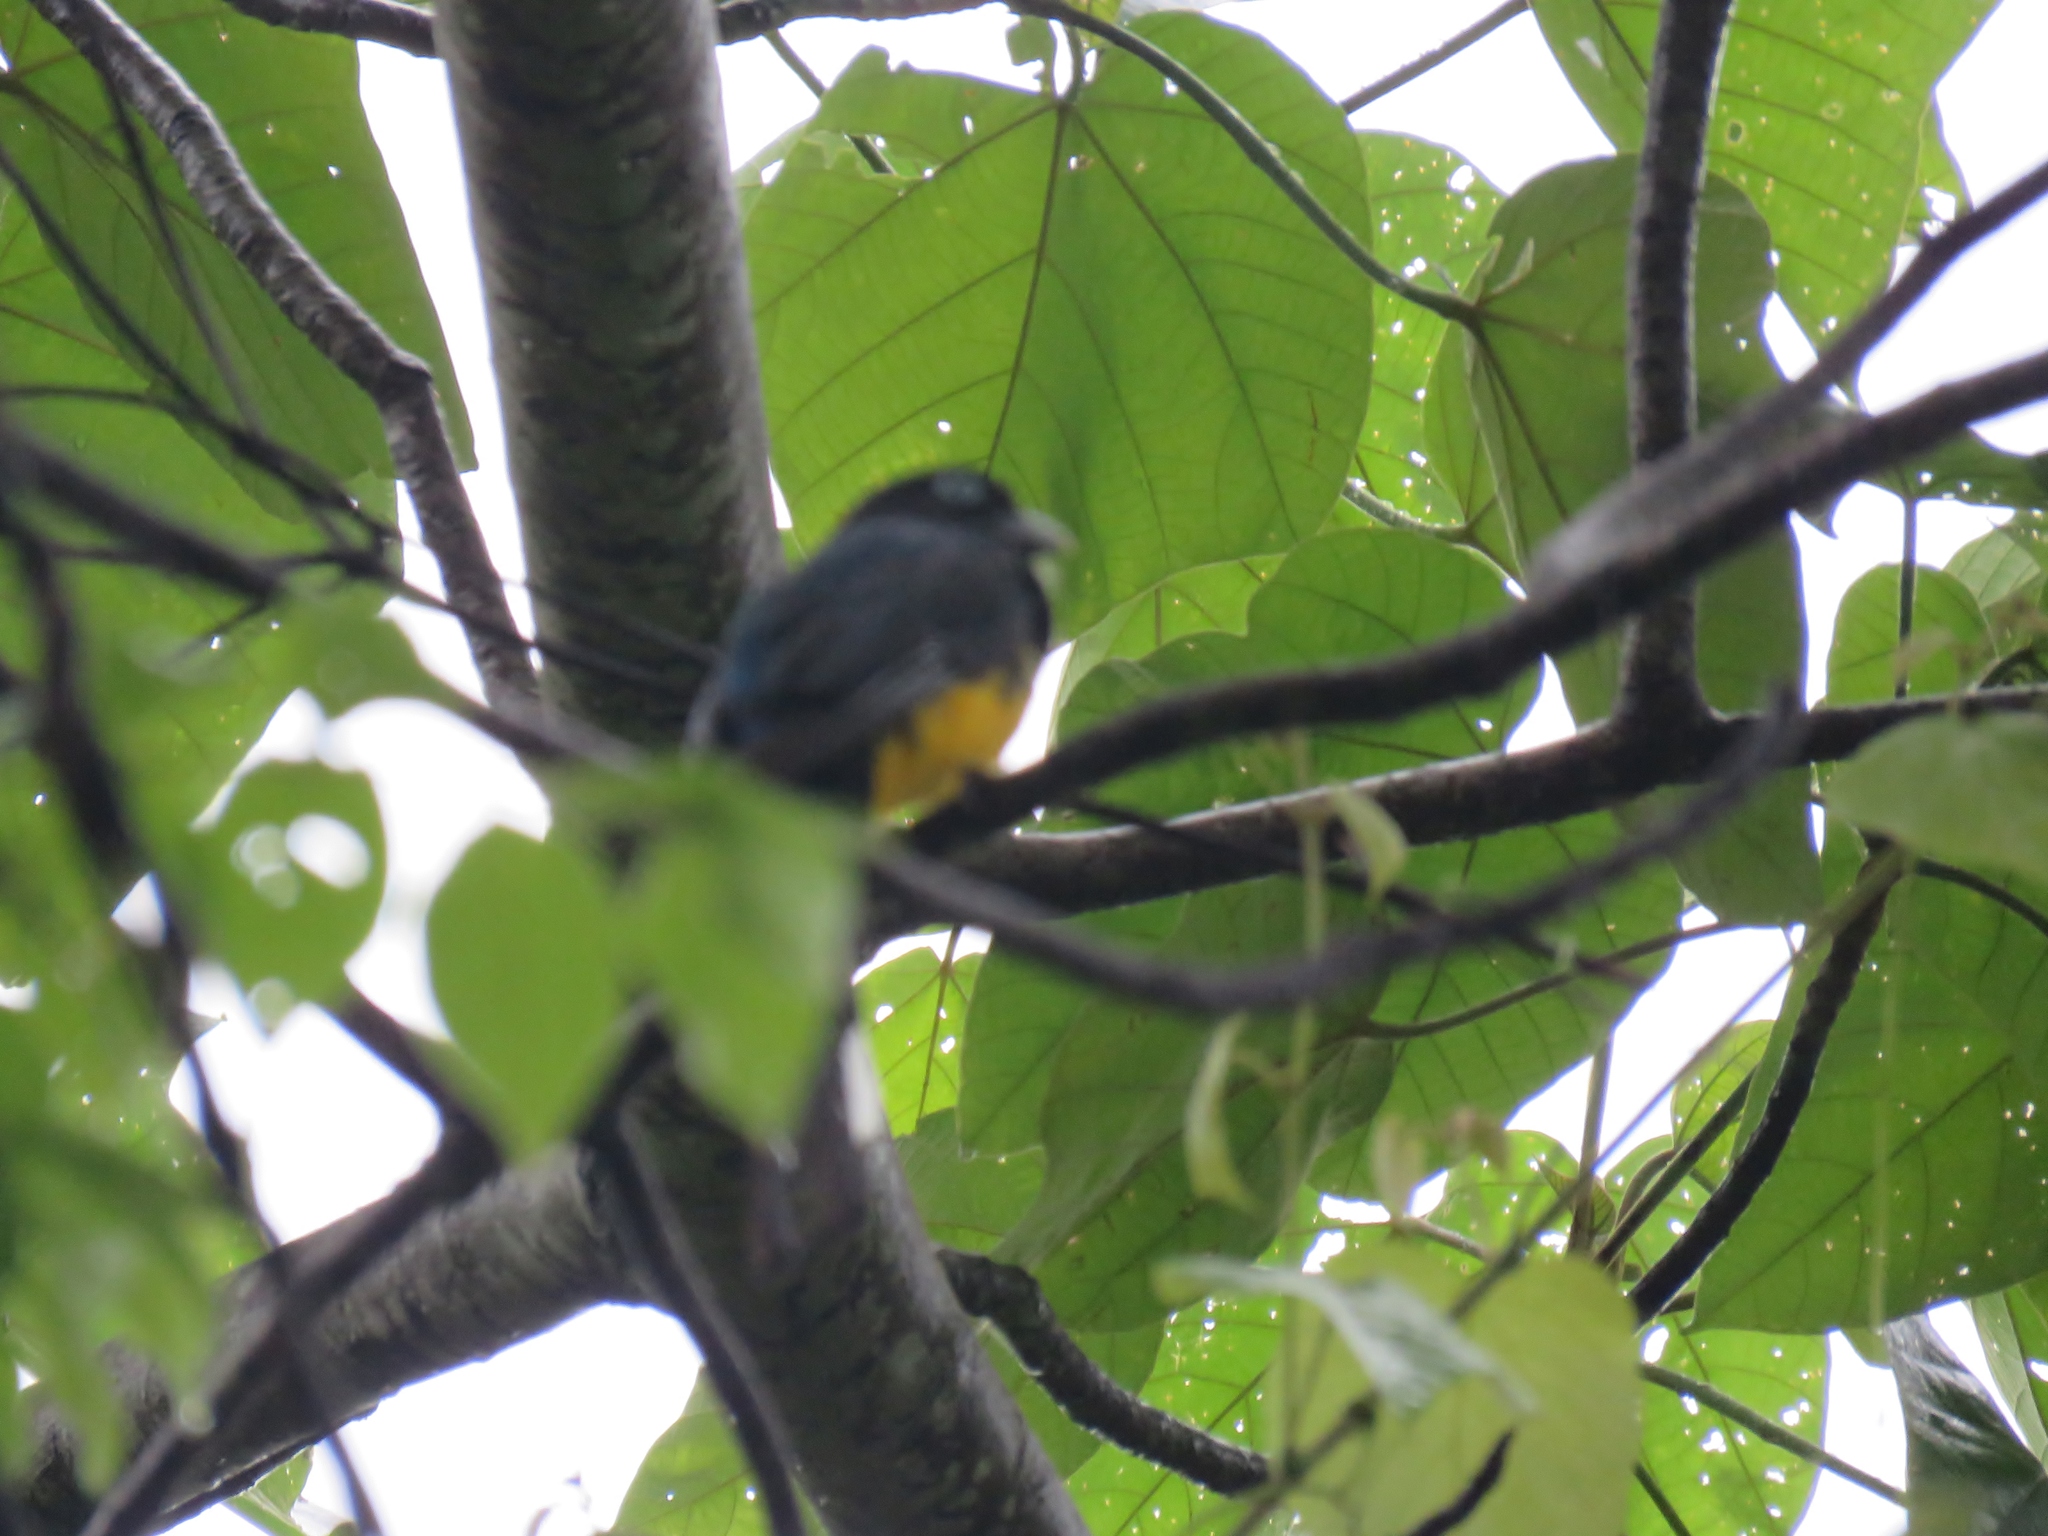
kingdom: Animalia
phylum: Chordata
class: Aves
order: Trogoniformes
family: Trogonidae
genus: Trogon
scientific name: Trogon melanocephalus
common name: Black-headed trogon
